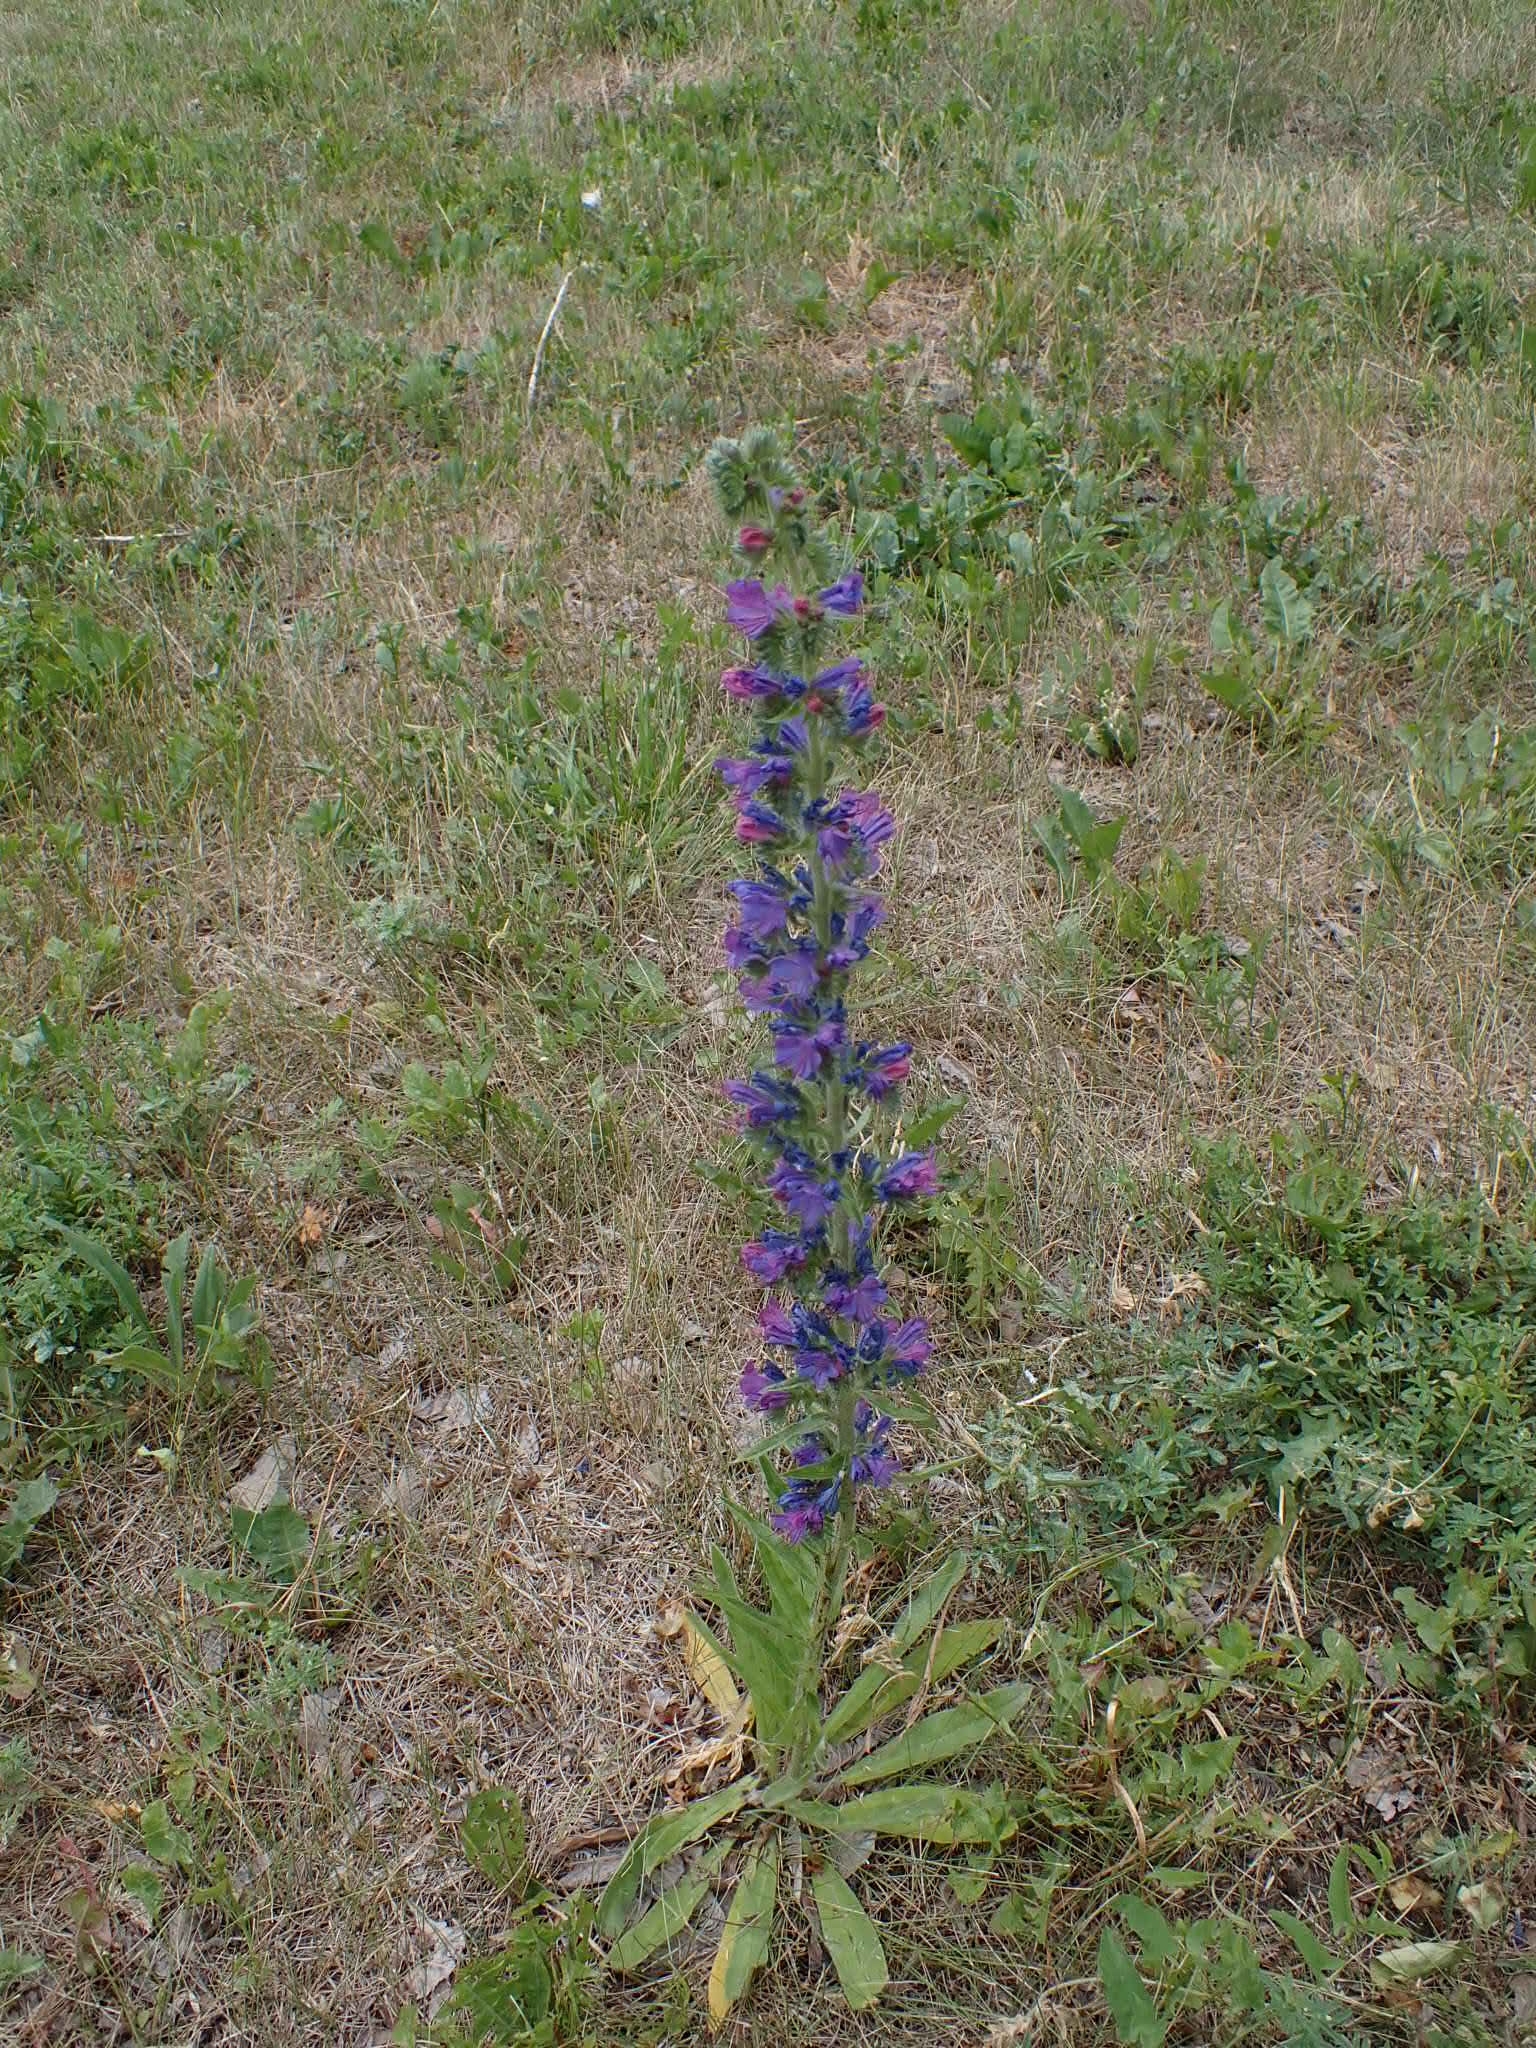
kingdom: Plantae
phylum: Tracheophyta
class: Magnoliopsida
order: Boraginales
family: Boraginaceae
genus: Echium
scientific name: Echium vulgare
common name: Common viper's bugloss
